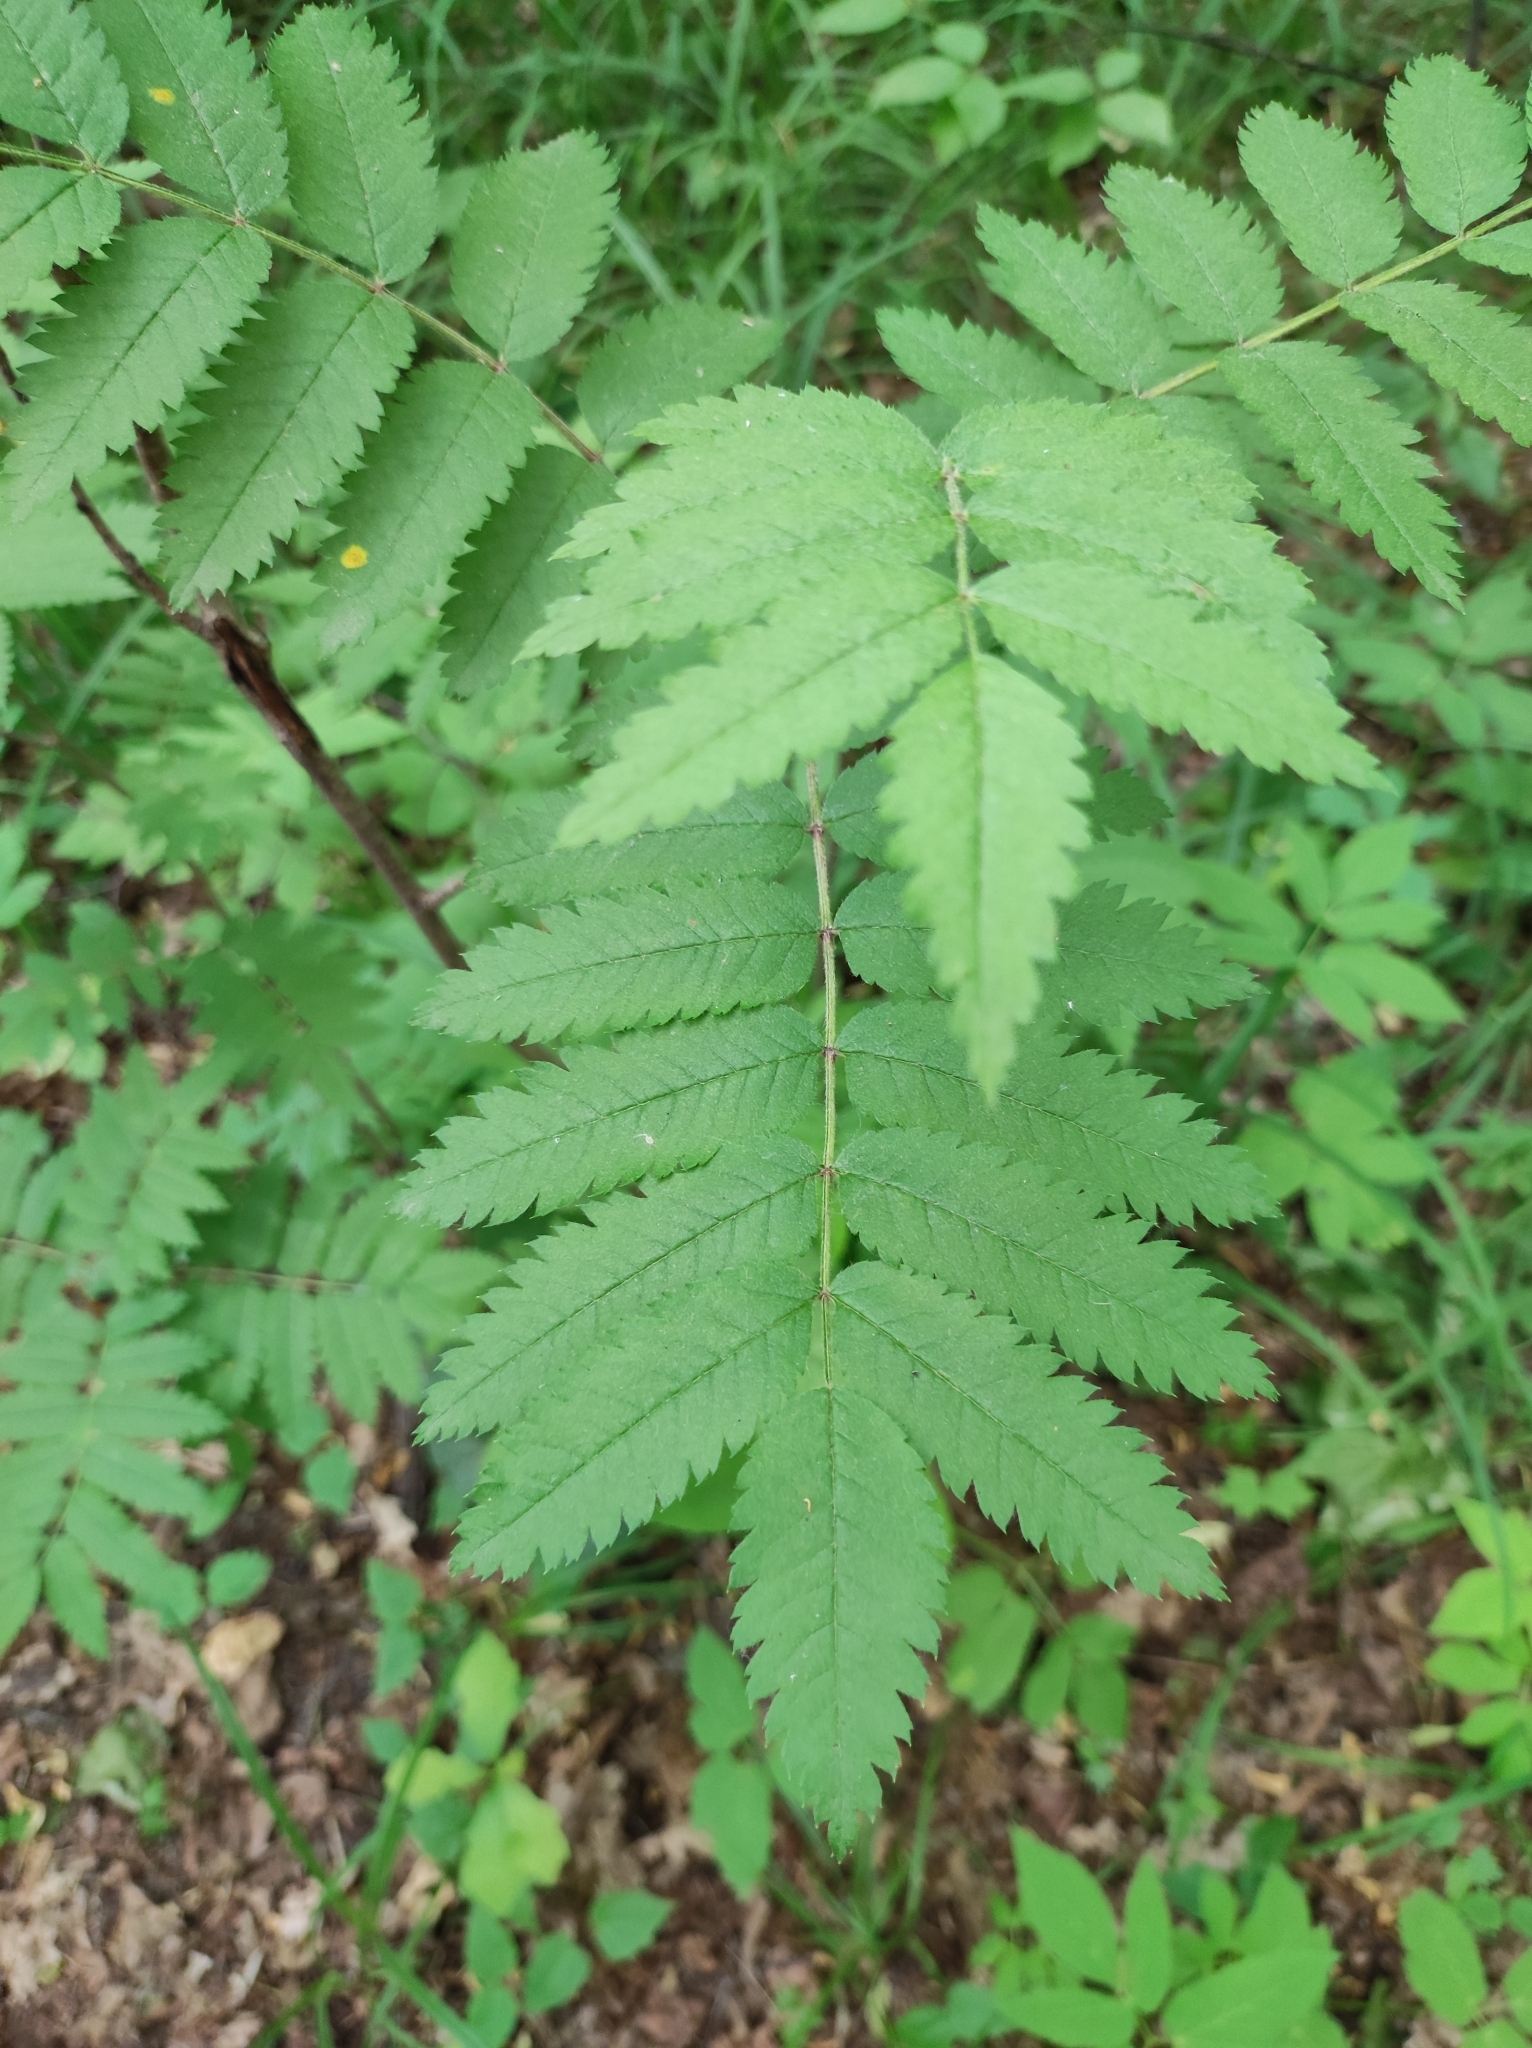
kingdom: Plantae
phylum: Tracheophyta
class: Magnoliopsida
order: Rosales
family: Rosaceae
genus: Sorbus
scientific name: Sorbus aucuparia
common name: Rowan
